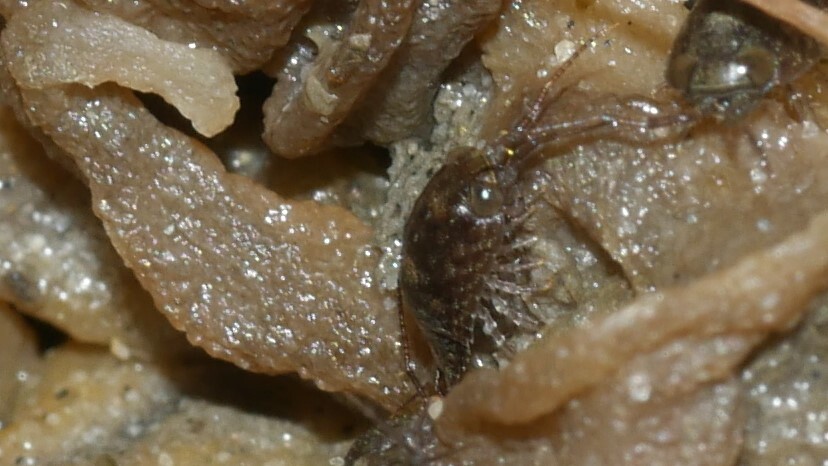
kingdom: Animalia
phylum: Arthropoda
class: Malacostraca
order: Isopoda
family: Ligiidae
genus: Ligia
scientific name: Ligia exotica
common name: Wharf roach
